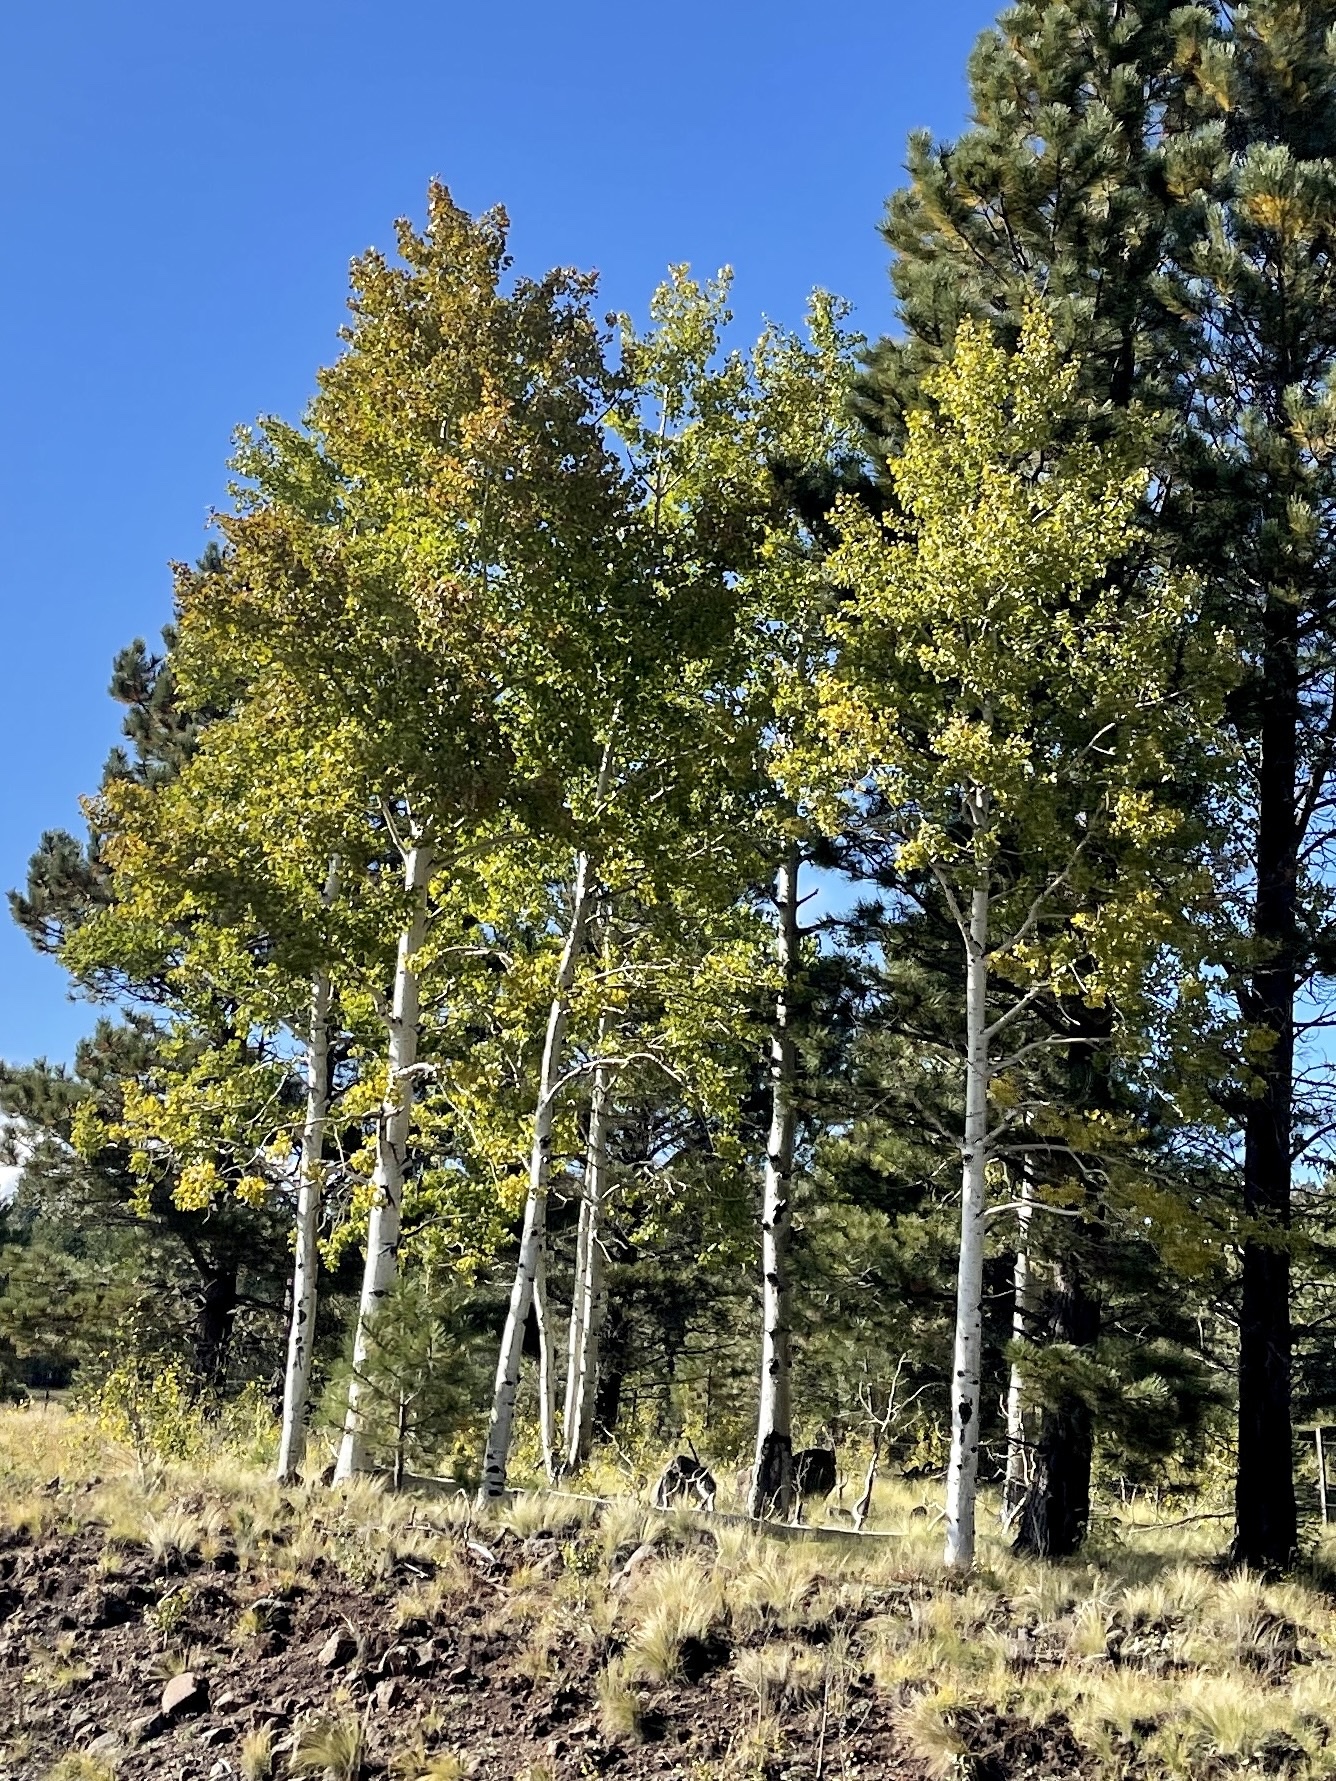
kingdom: Plantae
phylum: Tracheophyta
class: Magnoliopsida
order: Malpighiales
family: Salicaceae
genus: Populus
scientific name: Populus tremuloides
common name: Quaking aspen
